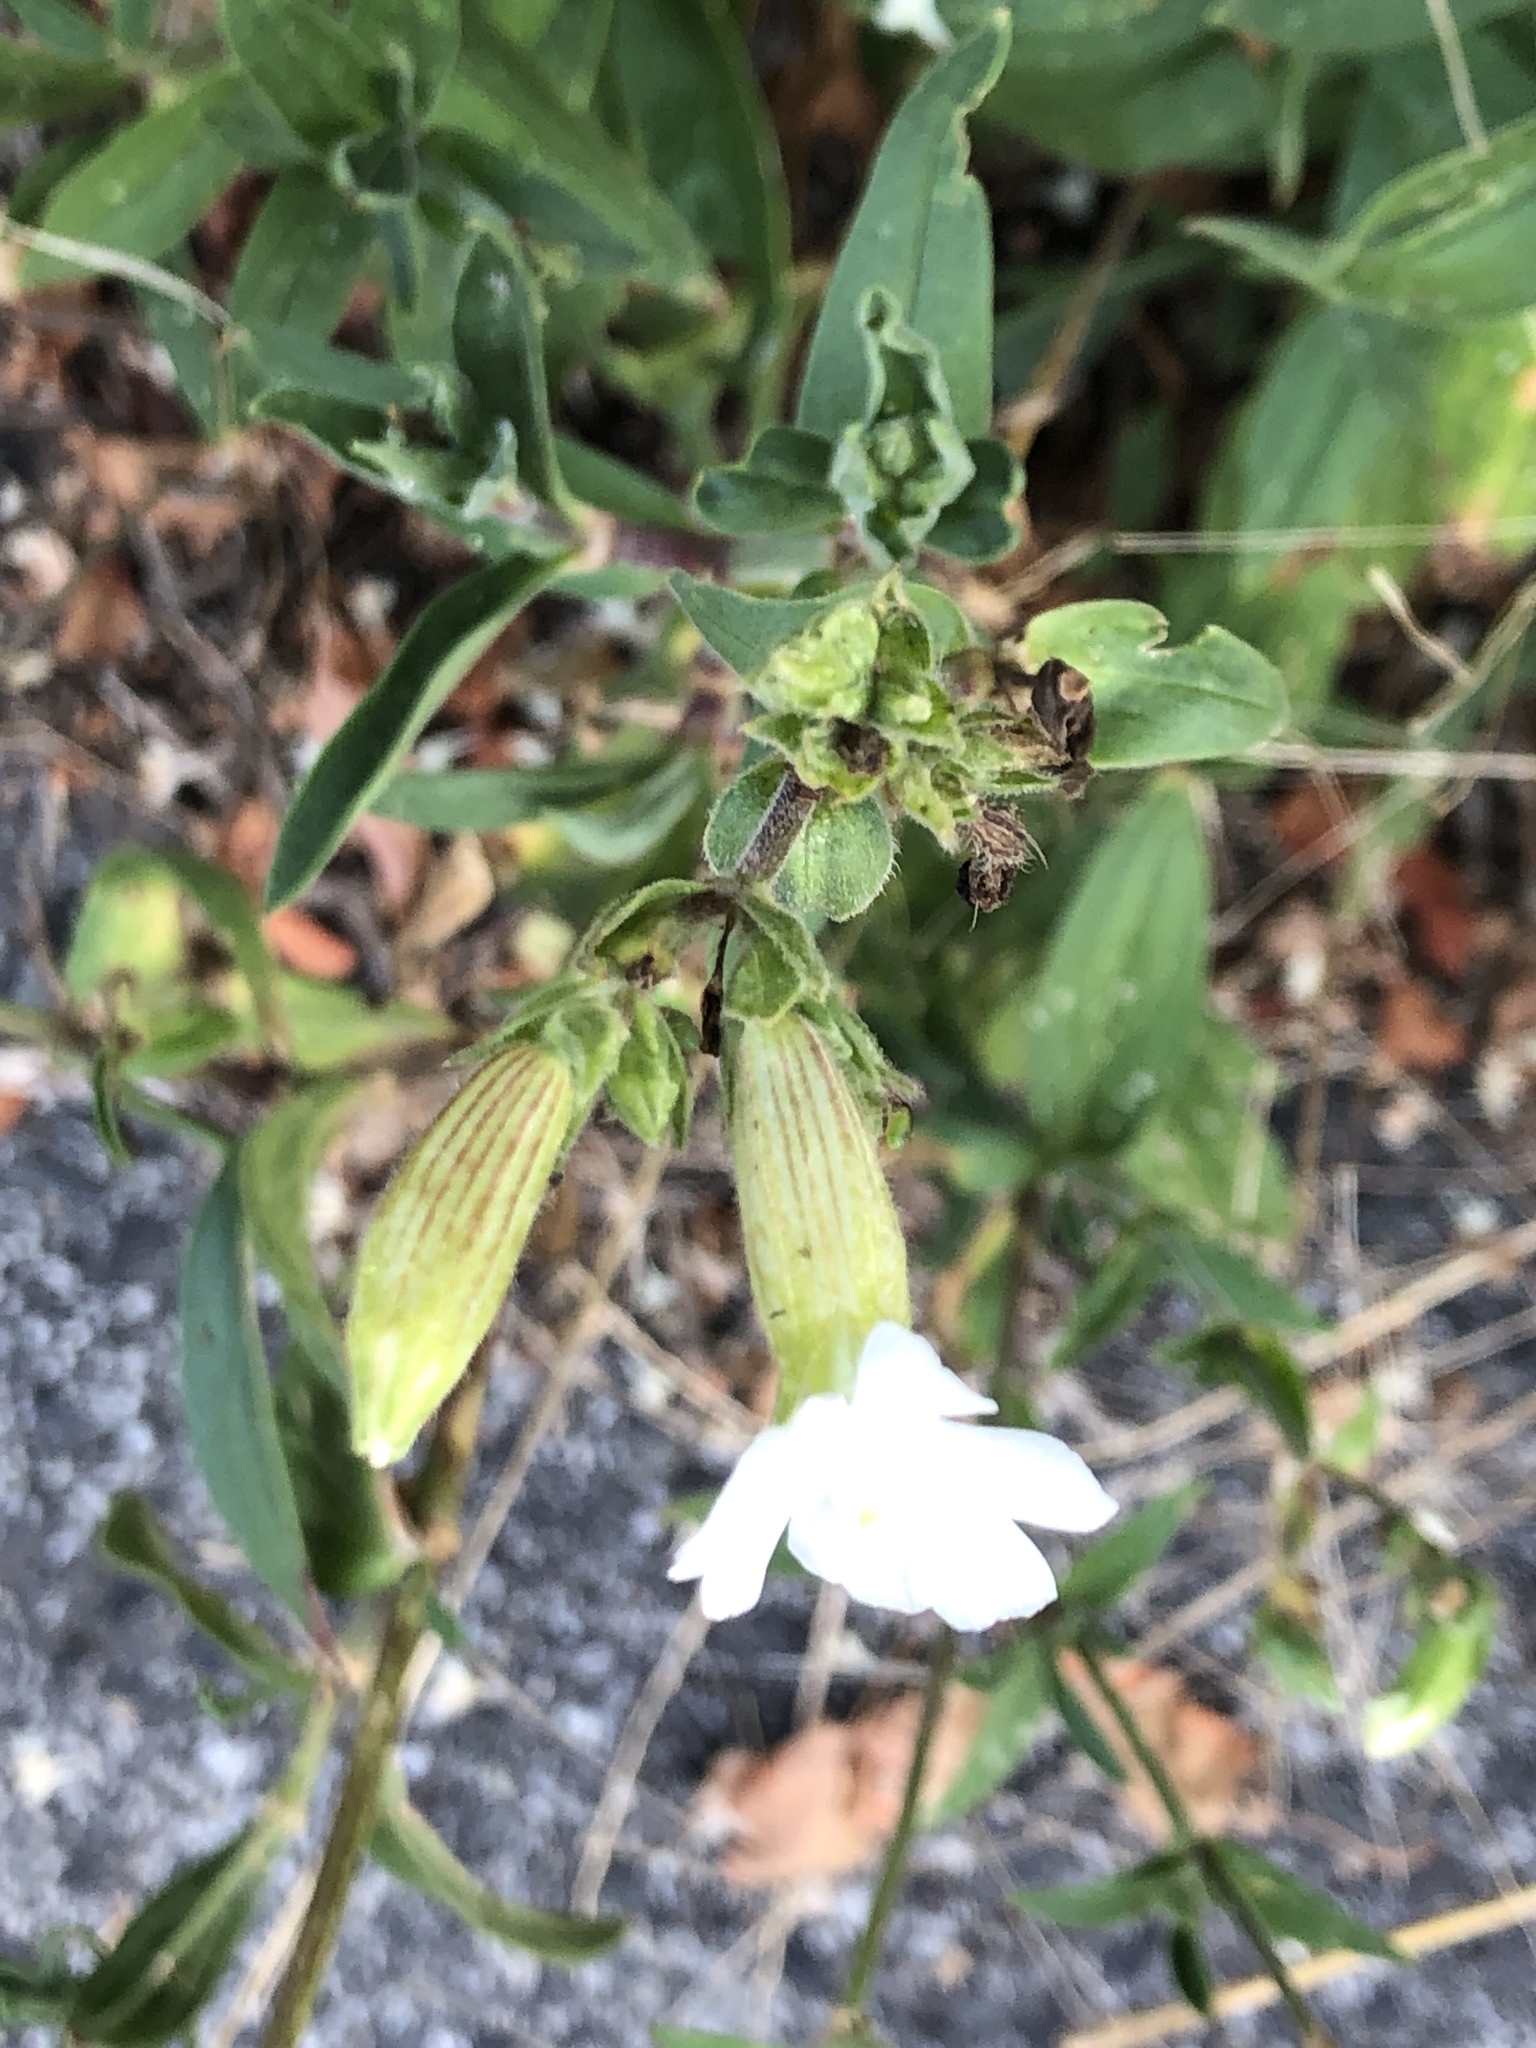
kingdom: Plantae
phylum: Tracheophyta
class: Magnoliopsida
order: Caryophyllales
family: Caryophyllaceae
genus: Silene
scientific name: Silene latifolia
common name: White campion
